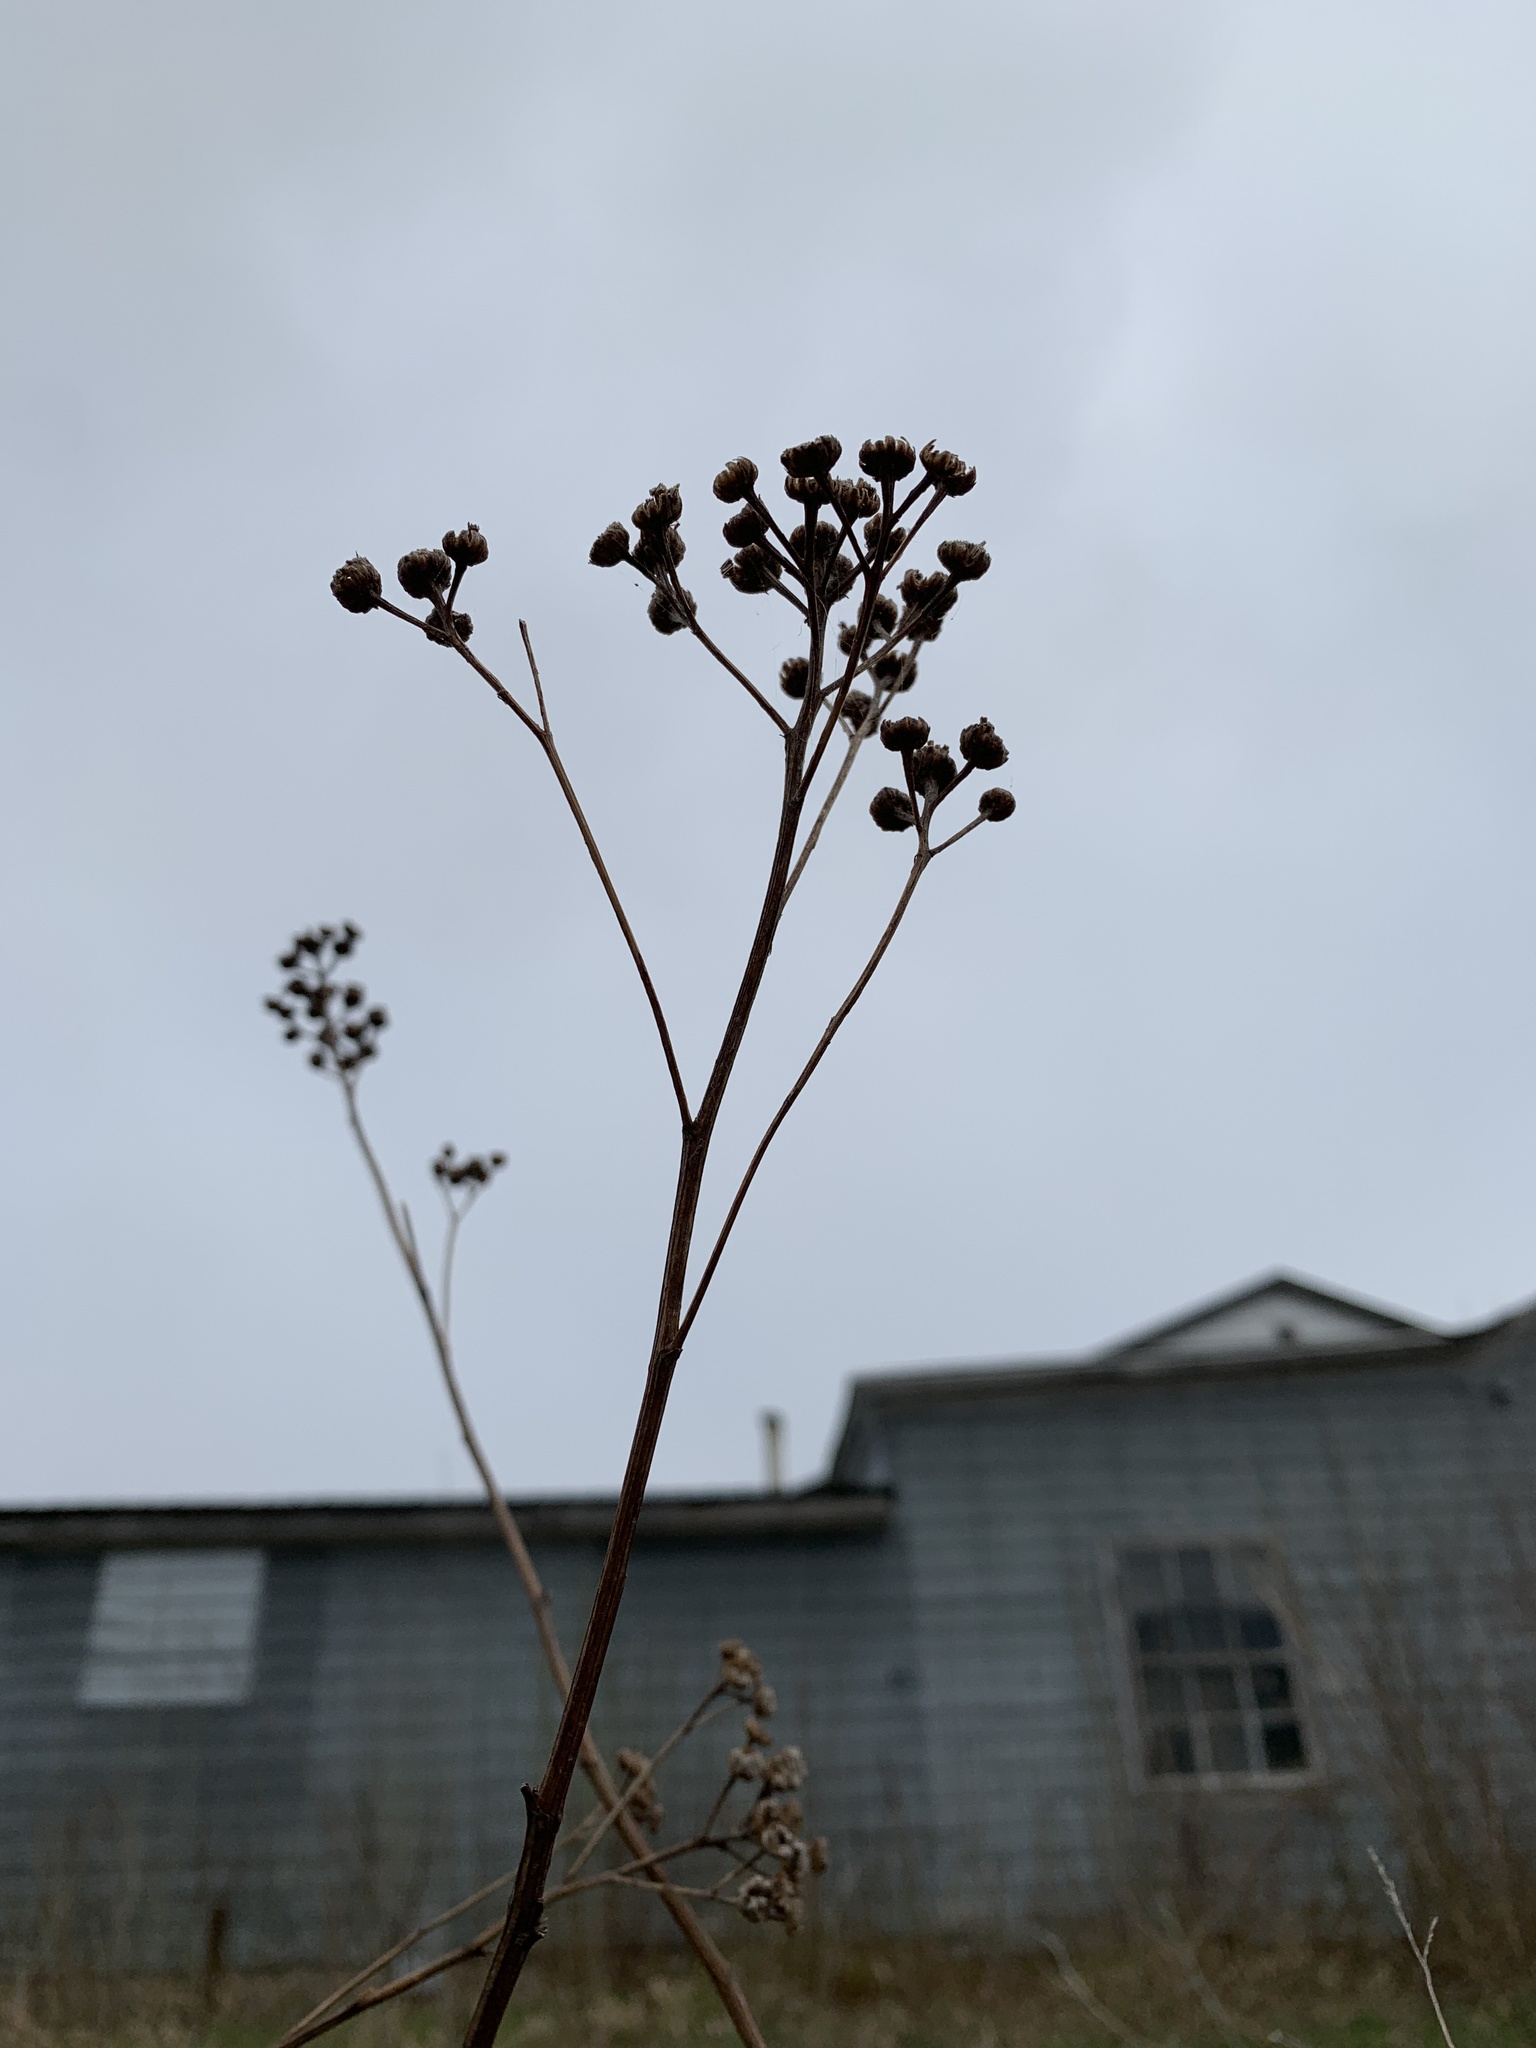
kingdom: Plantae
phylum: Tracheophyta
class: Magnoliopsida
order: Asterales
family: Asteraceae
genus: Tanacetum
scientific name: Tanacetum vulgare
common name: Common tansy
